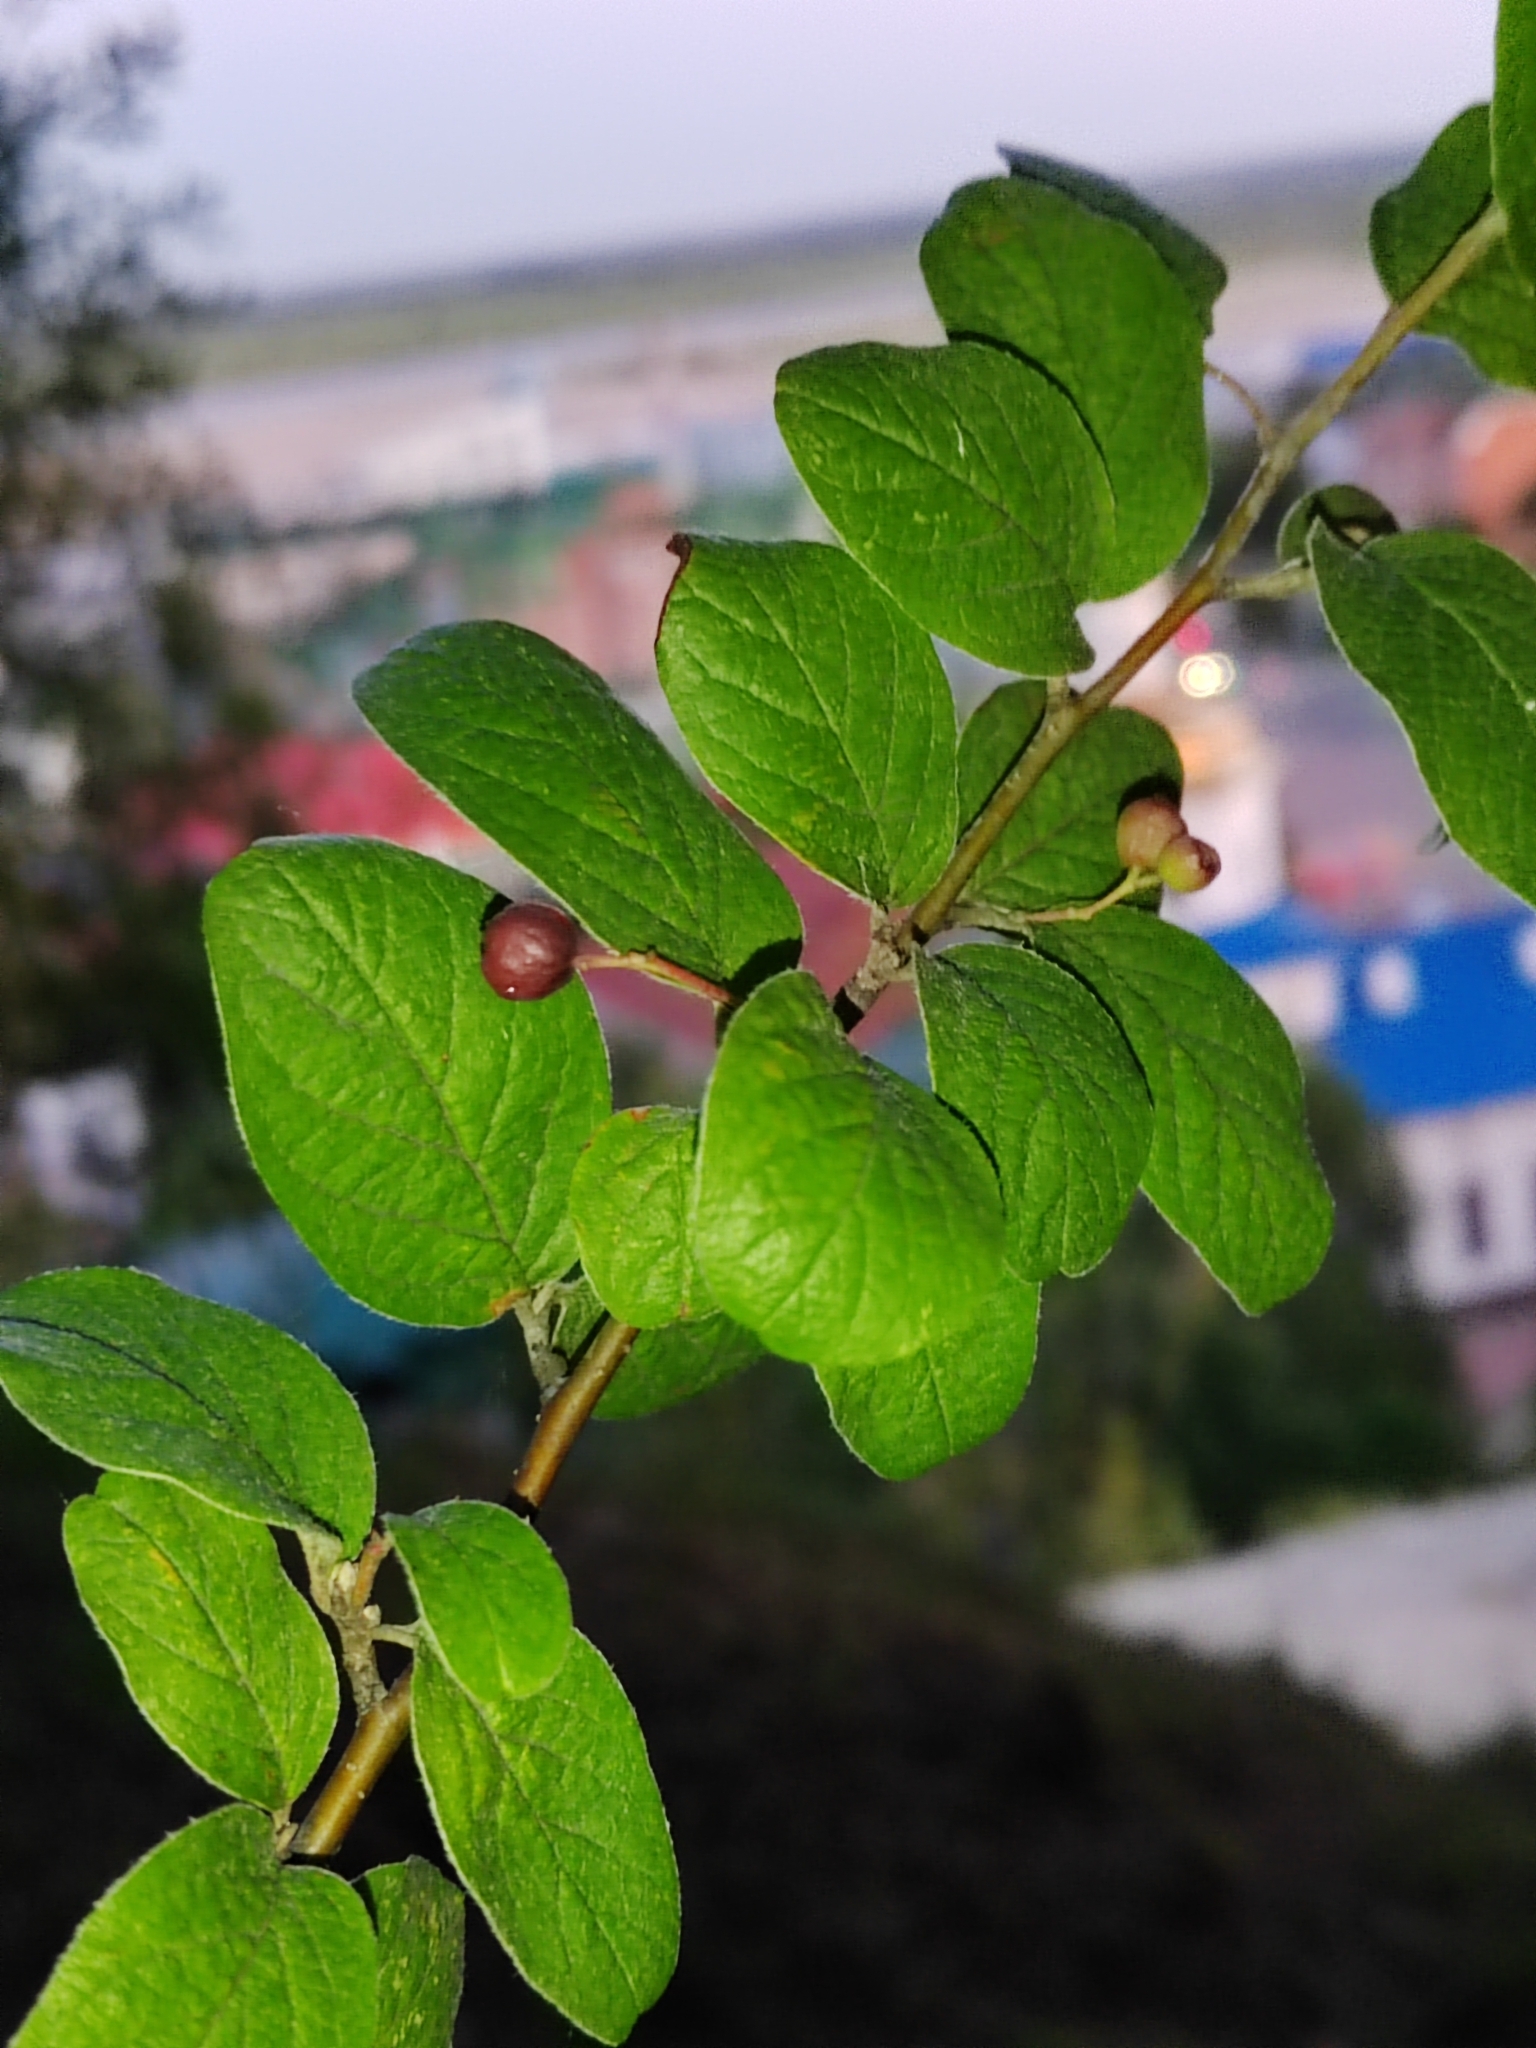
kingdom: Plantae
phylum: Tracheophyta
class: Magnoliopsida
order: Rosales
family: Rosaceae
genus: Cotoneaster
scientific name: Cotoneaster melanocarpus
